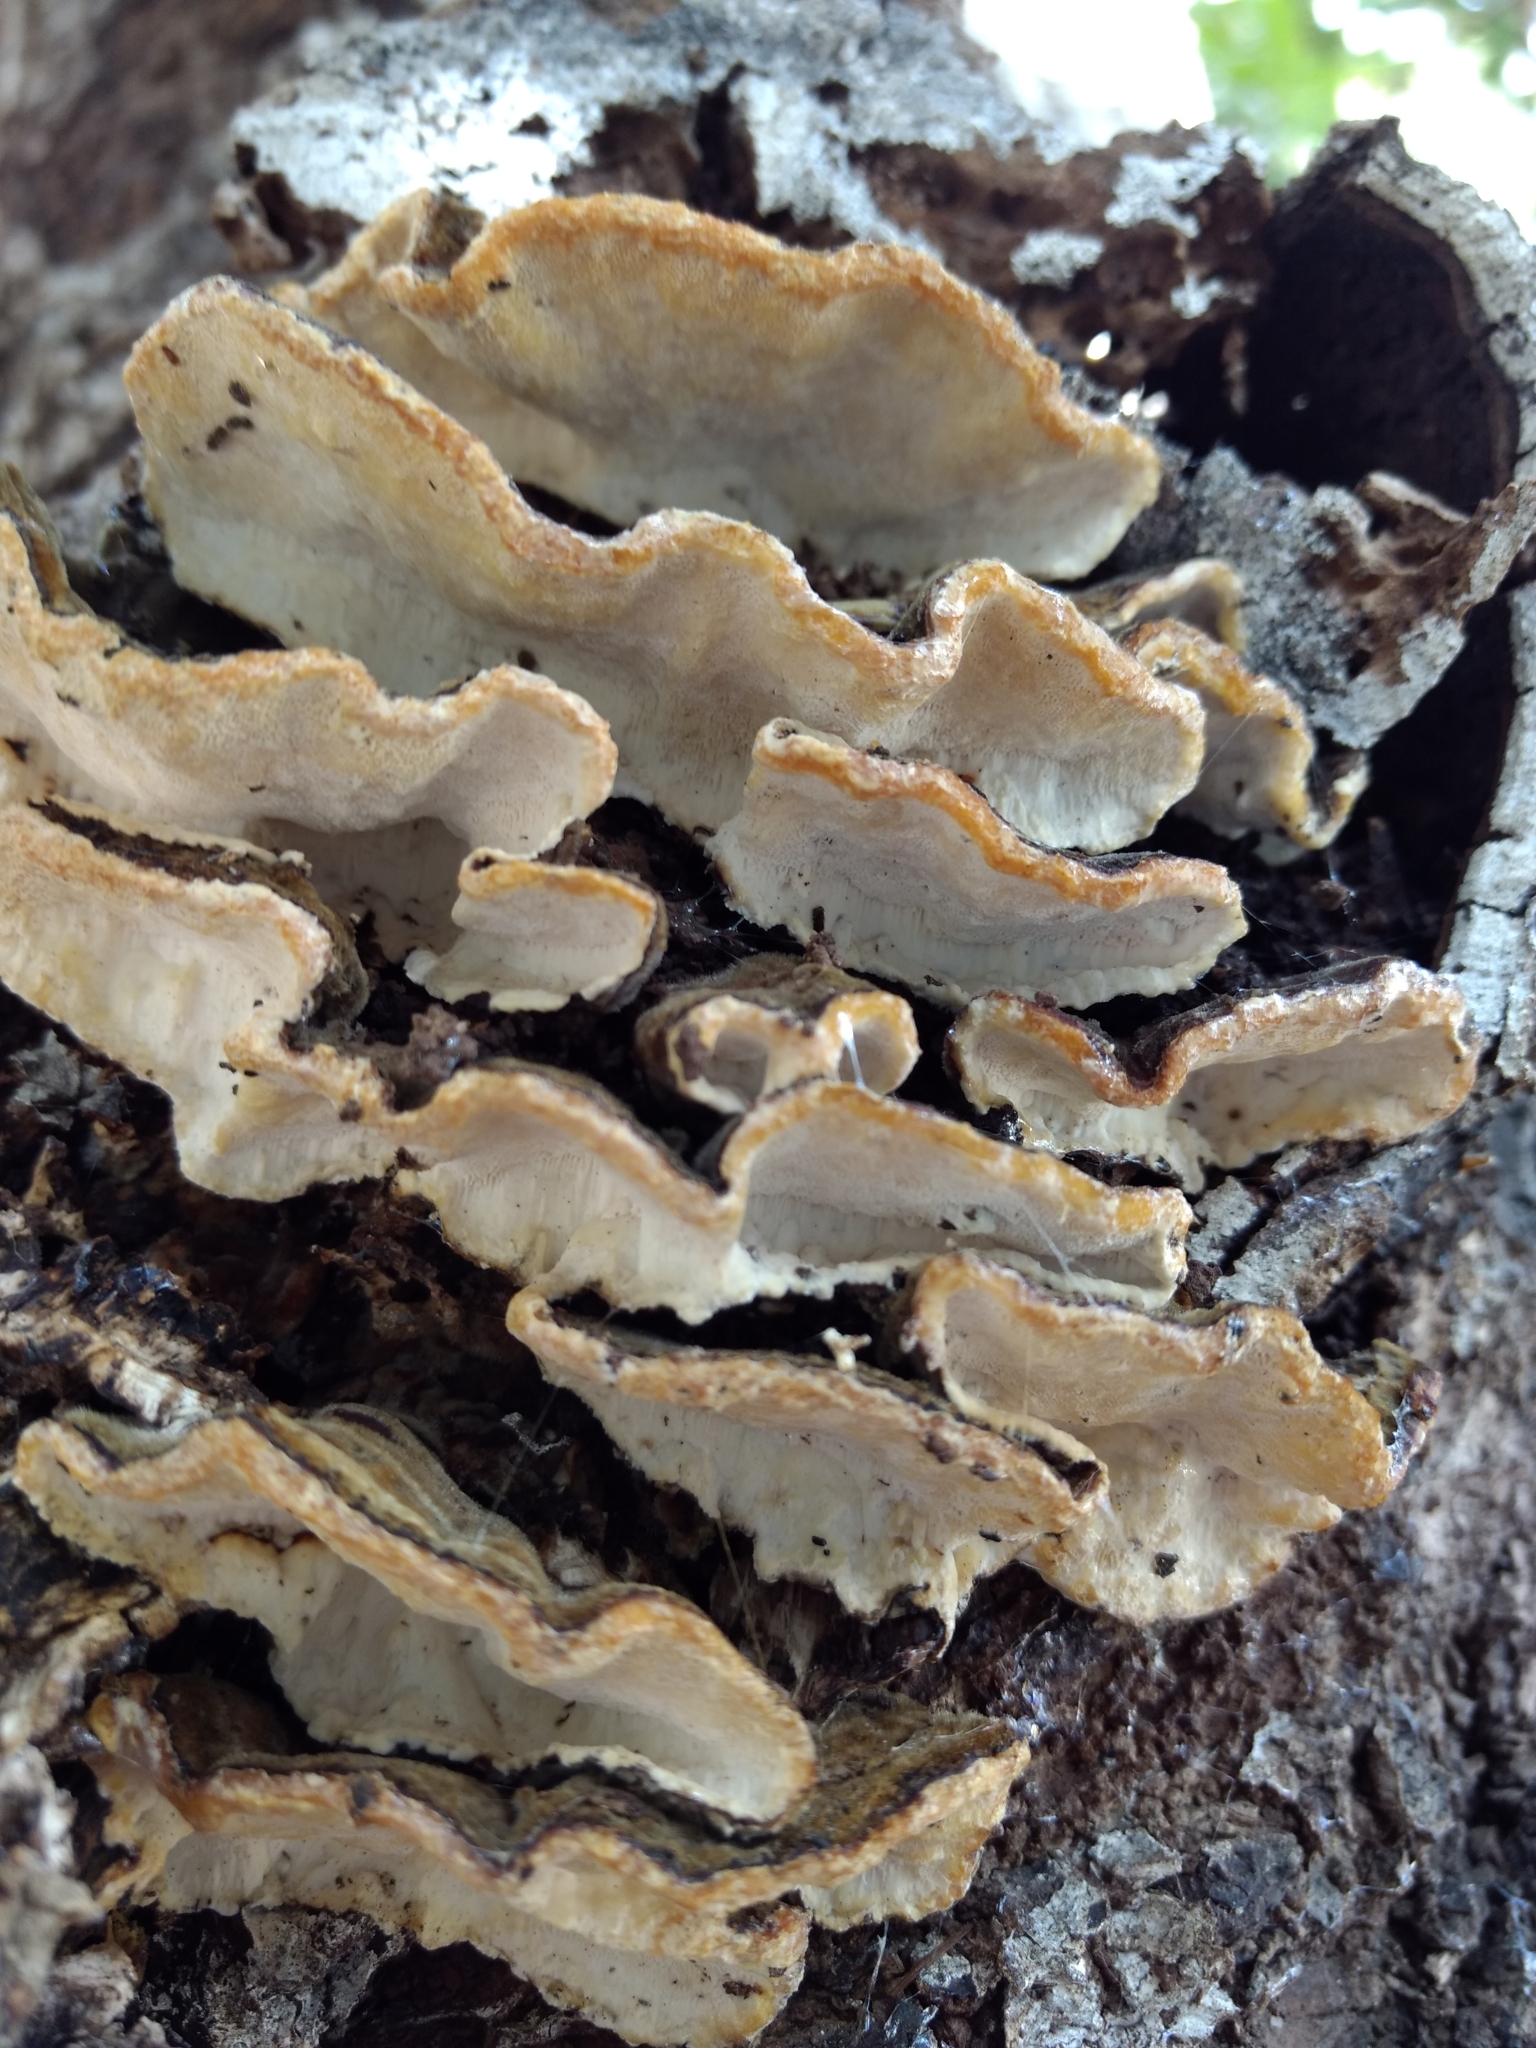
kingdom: Fungi
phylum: Basidiomycota
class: Agaricomycetes
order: Polyporales
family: Polyporaceae
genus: Trametes
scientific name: Trametes versicolor
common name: Turkeytail
